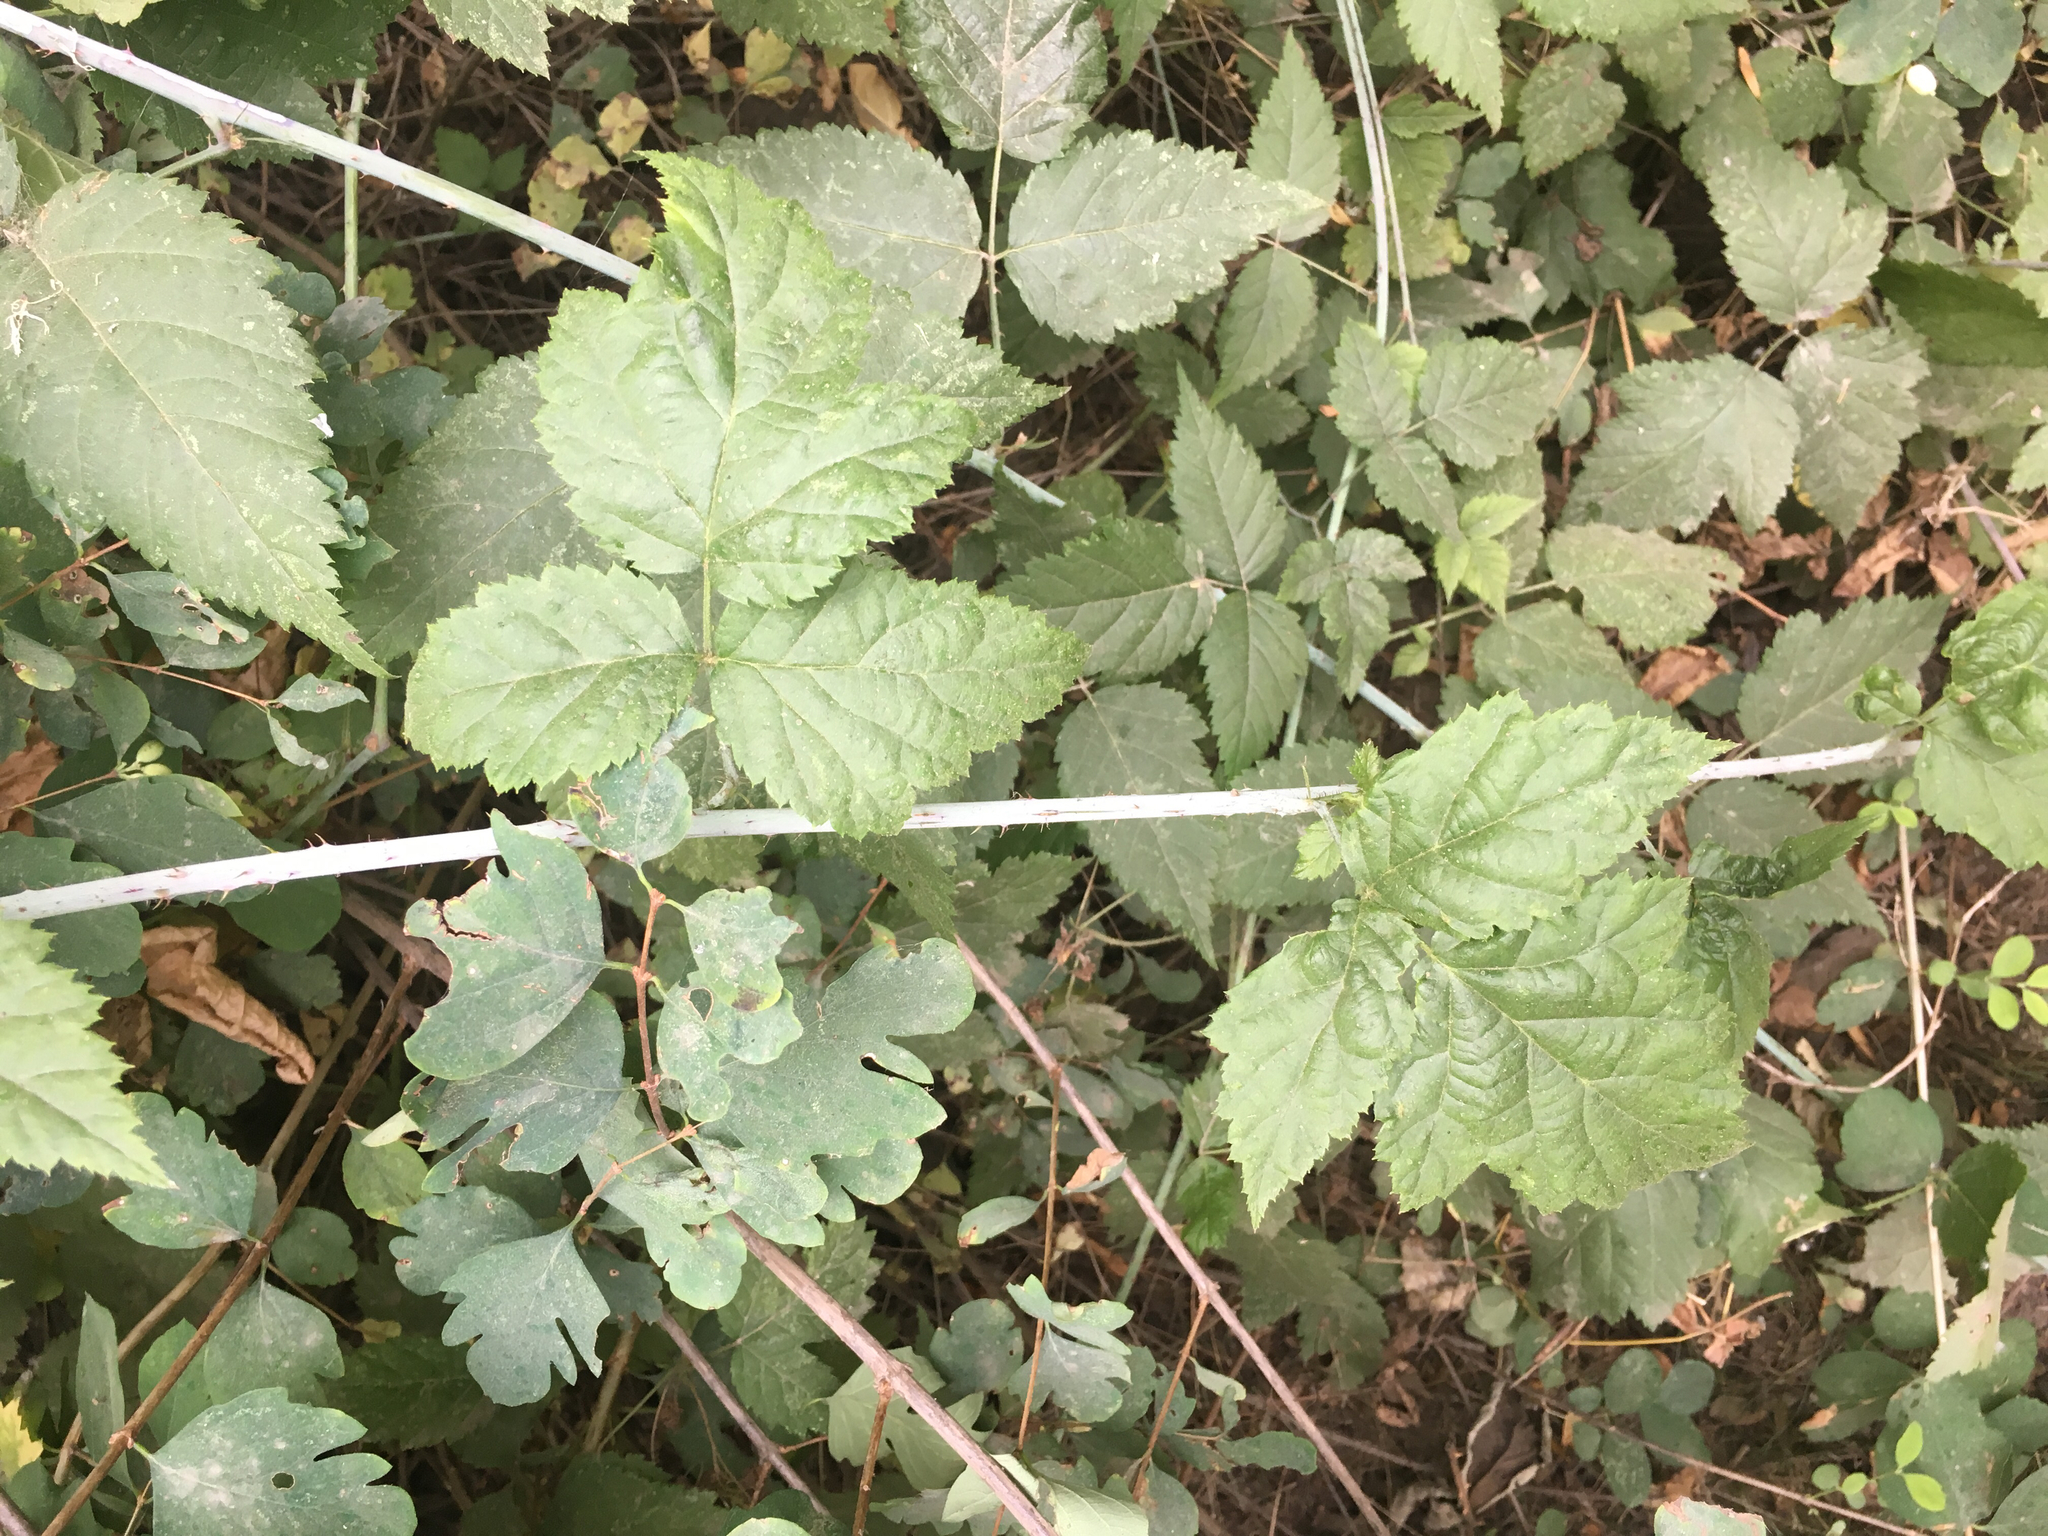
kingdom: Plantae
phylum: Tracheophyta
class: Magnoliopsida
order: Rosales
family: Rosaceae
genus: Rubus
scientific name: Rubus ursinus
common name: Pacific blackberry
